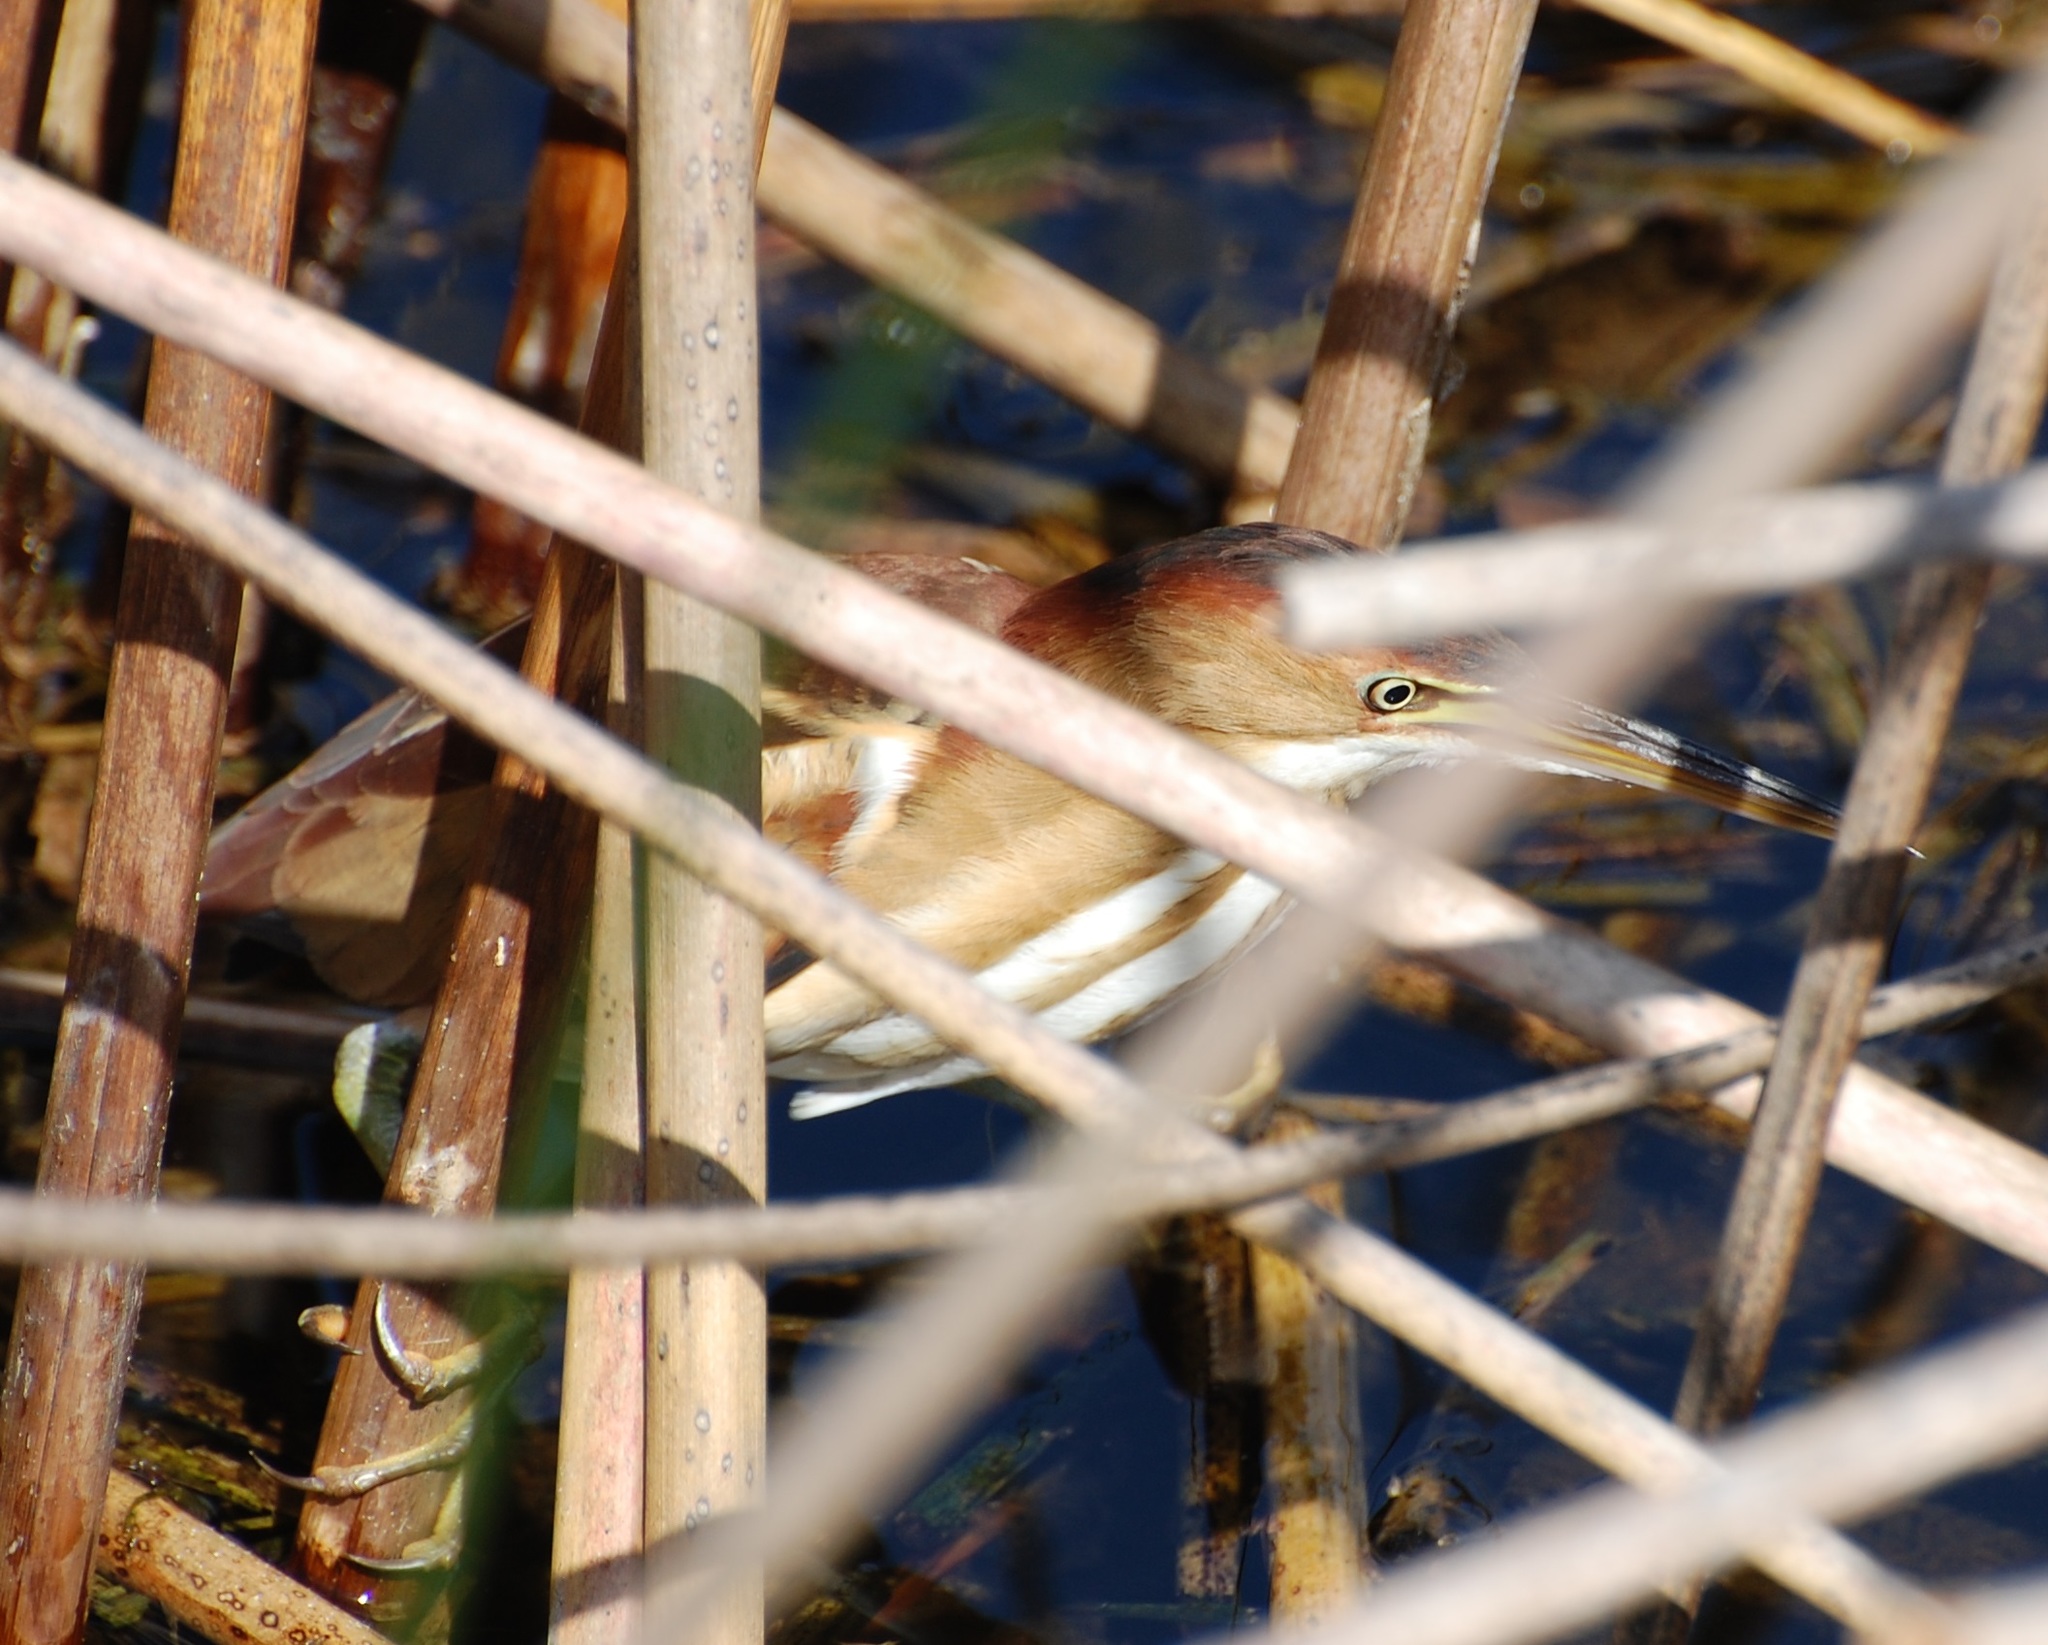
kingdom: Animalia
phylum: Chordata
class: Aves
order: Pelecaniformes
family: Ardeidae
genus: Ixobrychus
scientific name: Ixobrychus exilis
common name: Least bittern
